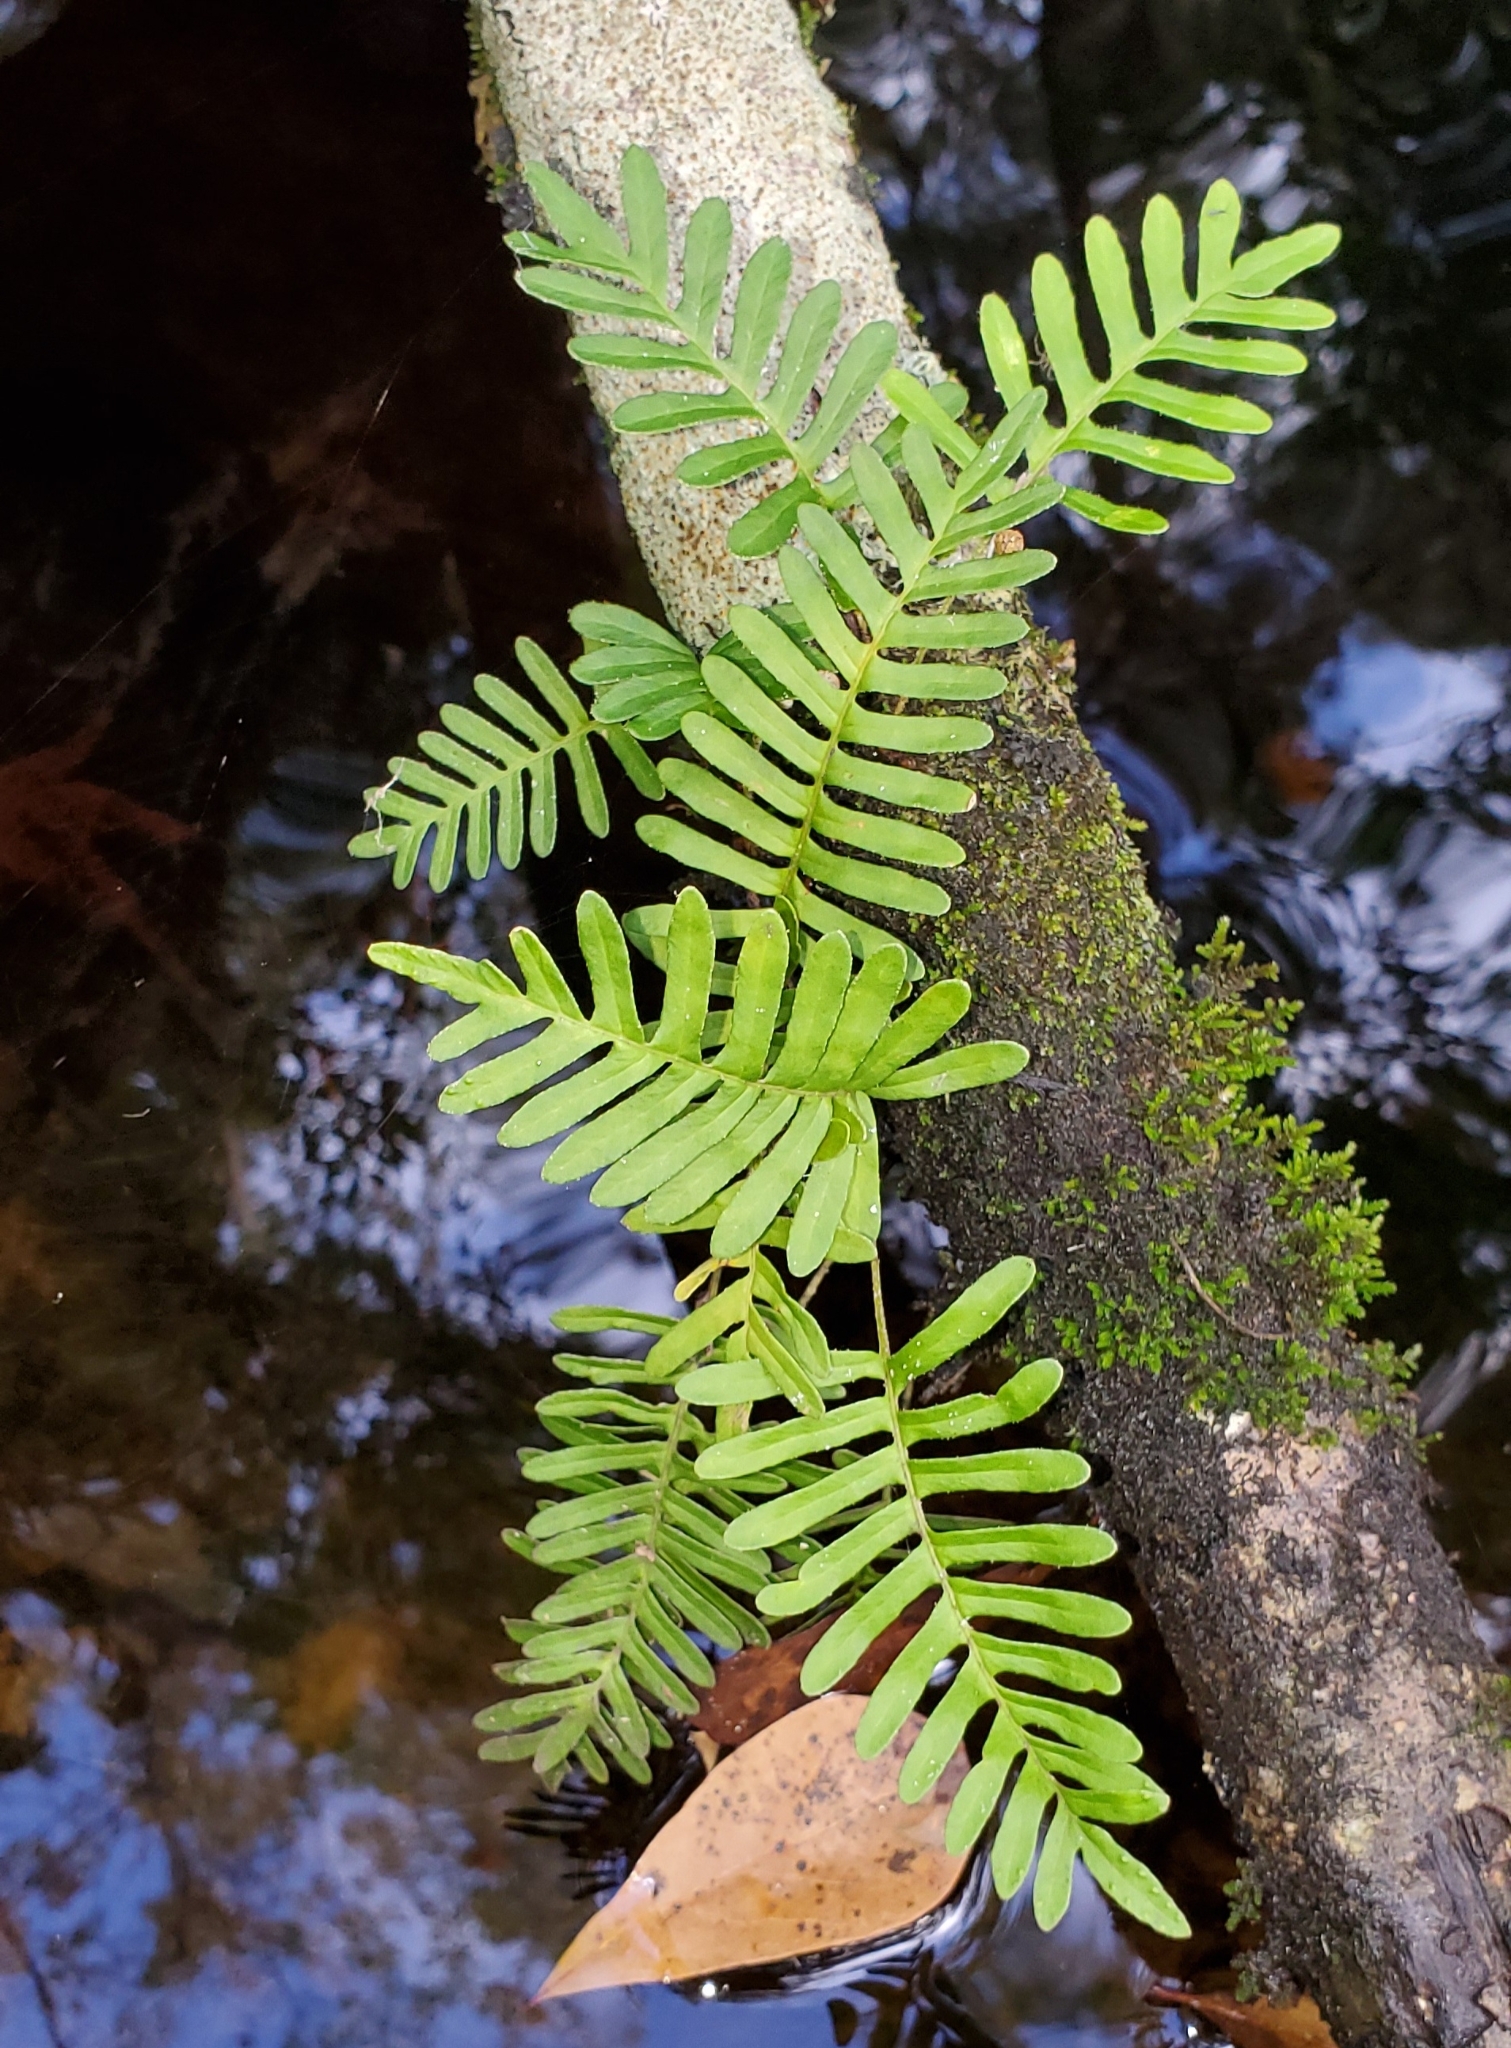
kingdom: Plantae
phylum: Tracheophyta
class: Polypodiopsida
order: Polypodiales
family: Polypodiaceae
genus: Pleopeltis
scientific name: Pleopeltis michauxiana
